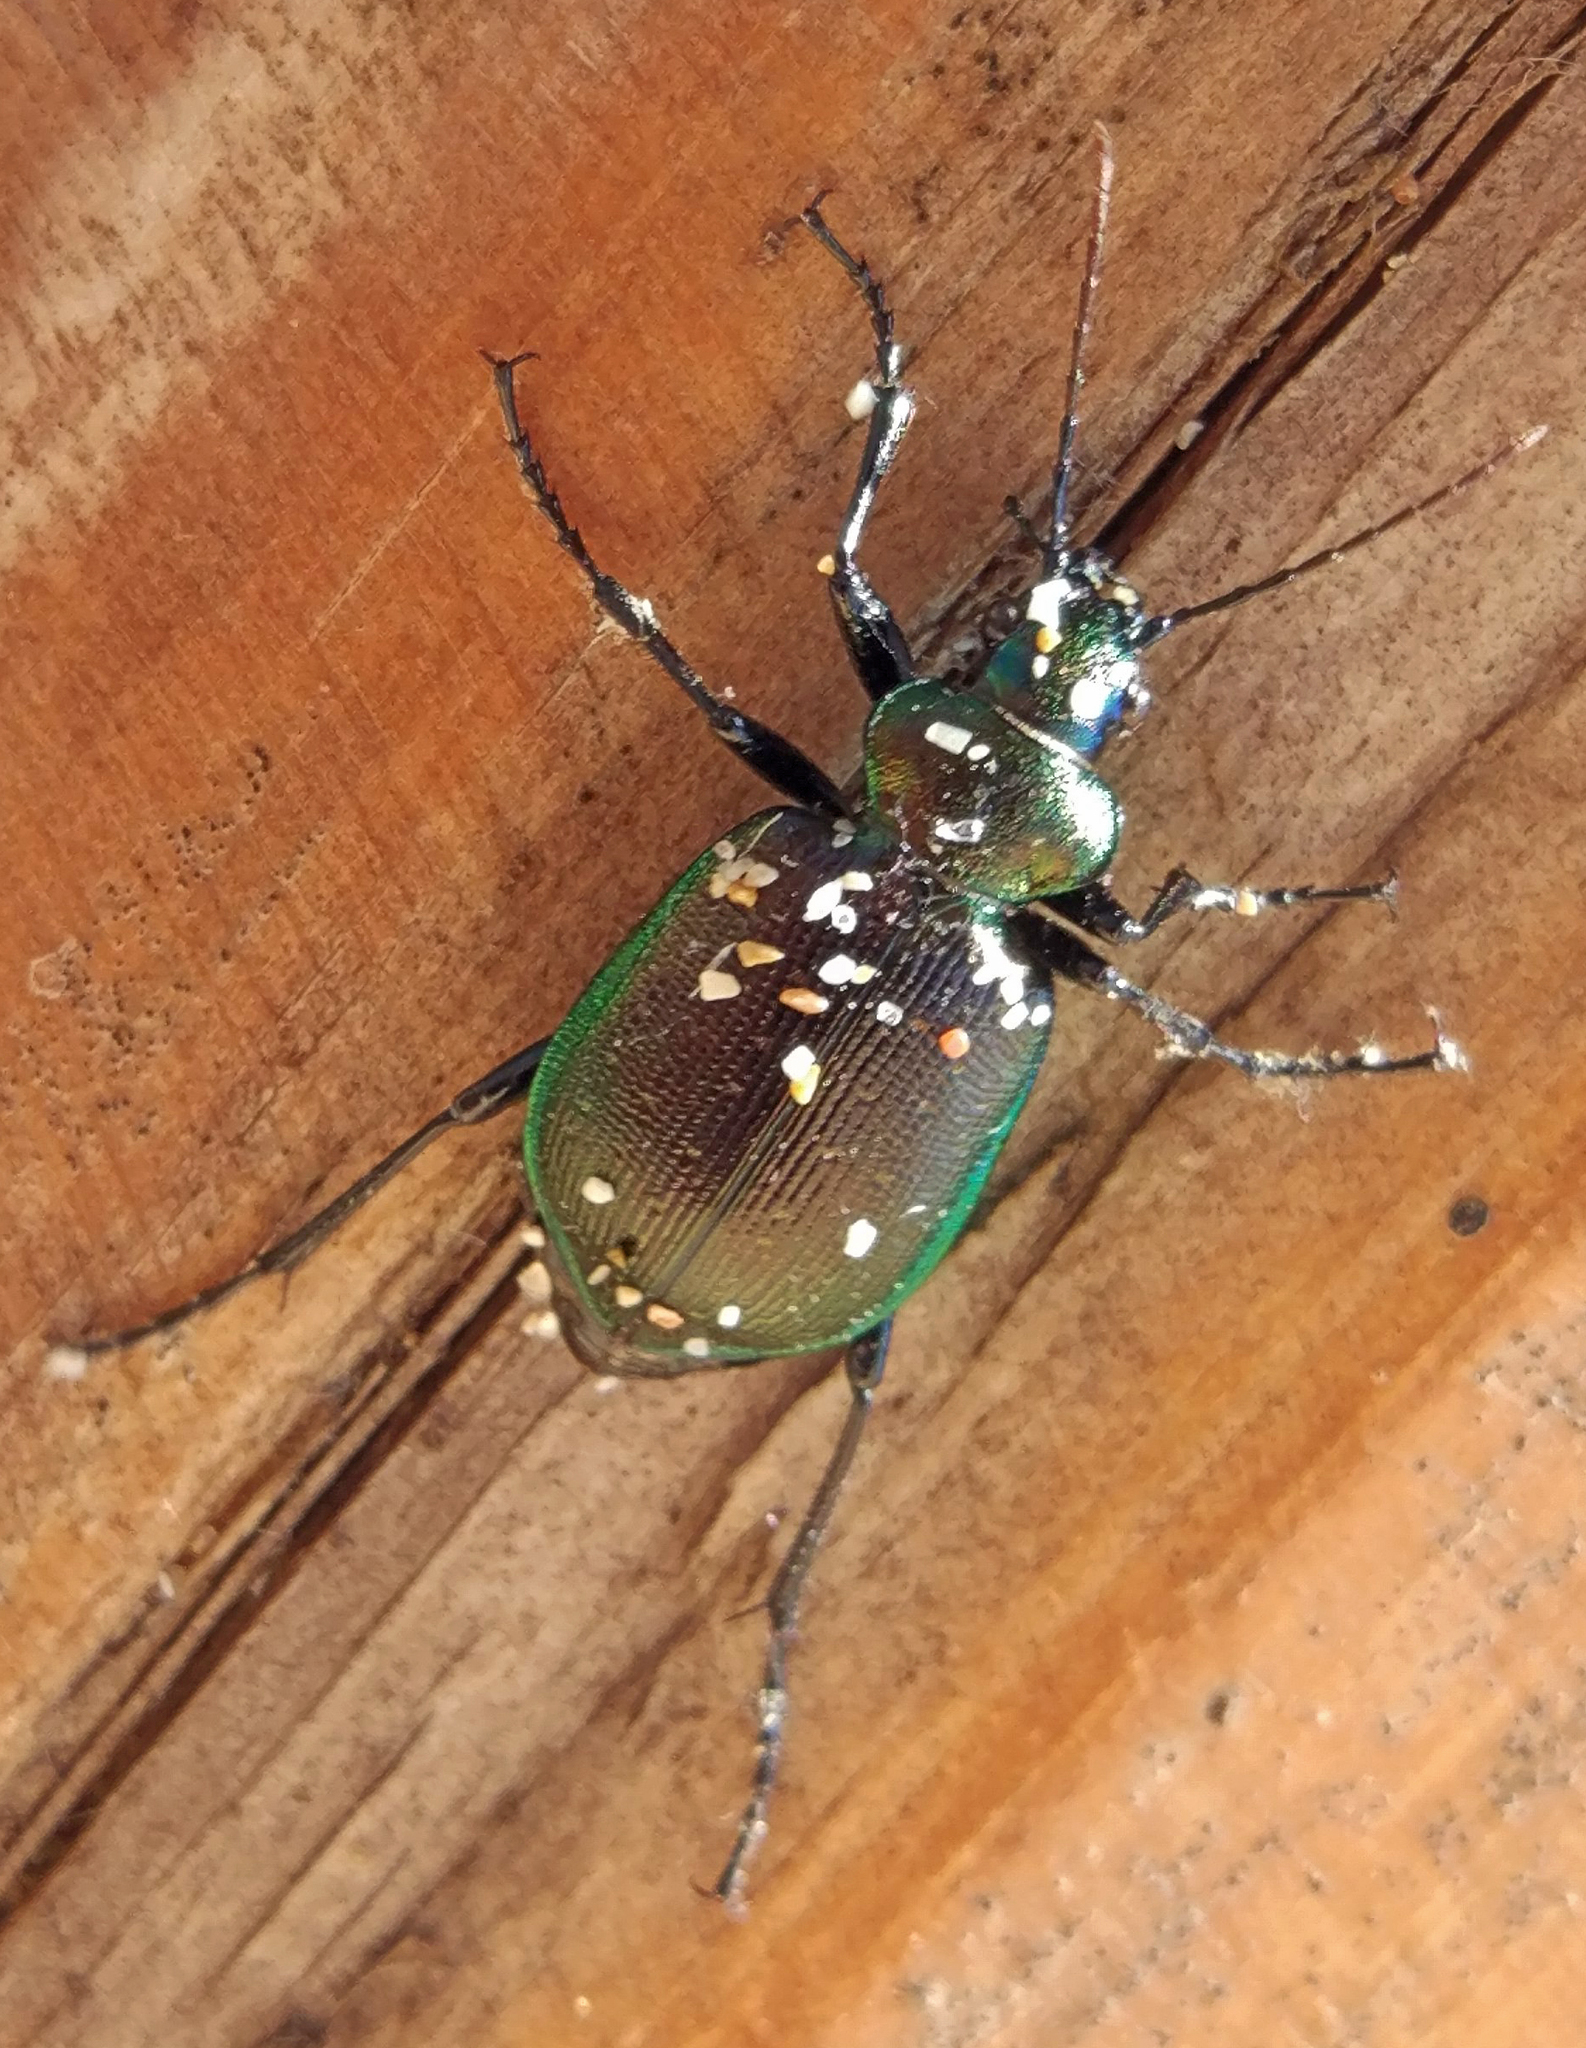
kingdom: Animalia
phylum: Arthropoda
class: Insecta
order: Coleoptera
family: Carabidae
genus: Calosoma
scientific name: Calosoma inquisitor
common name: Caterpillar-hunter
